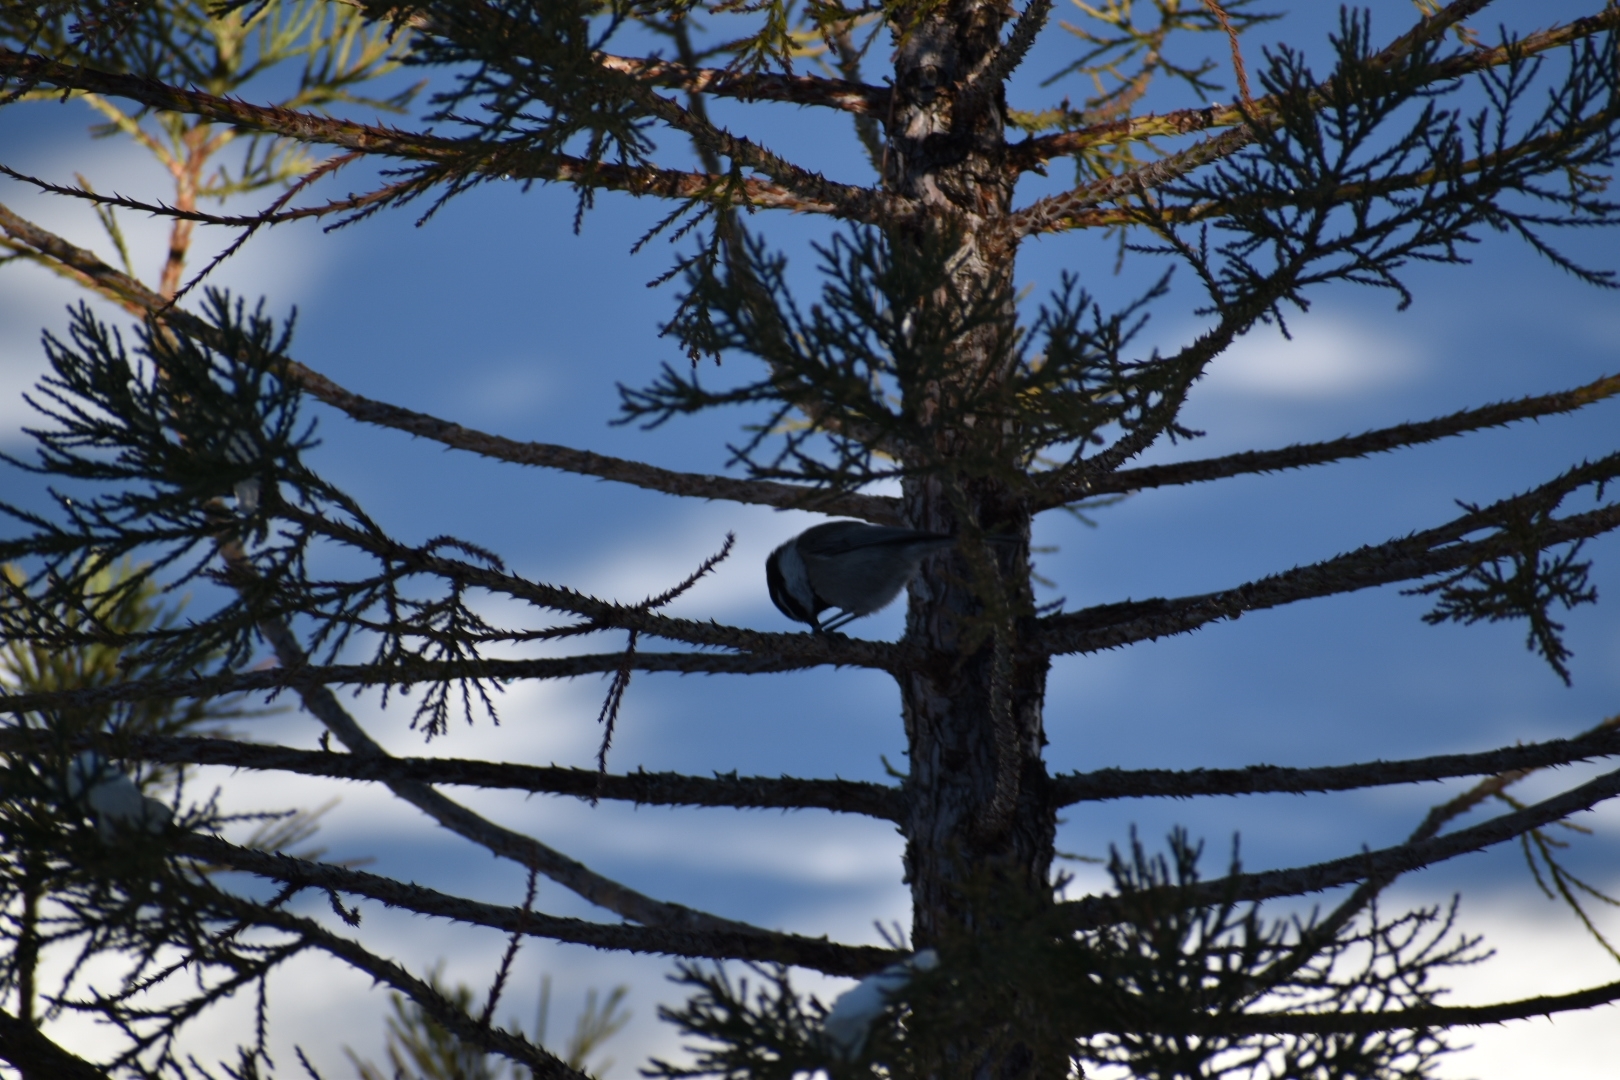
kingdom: Animalia
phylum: Chordata
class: Aves
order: Passeriformes
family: Paridae
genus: Poecile
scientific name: Poecile gambeli
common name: Mountain chickadee
